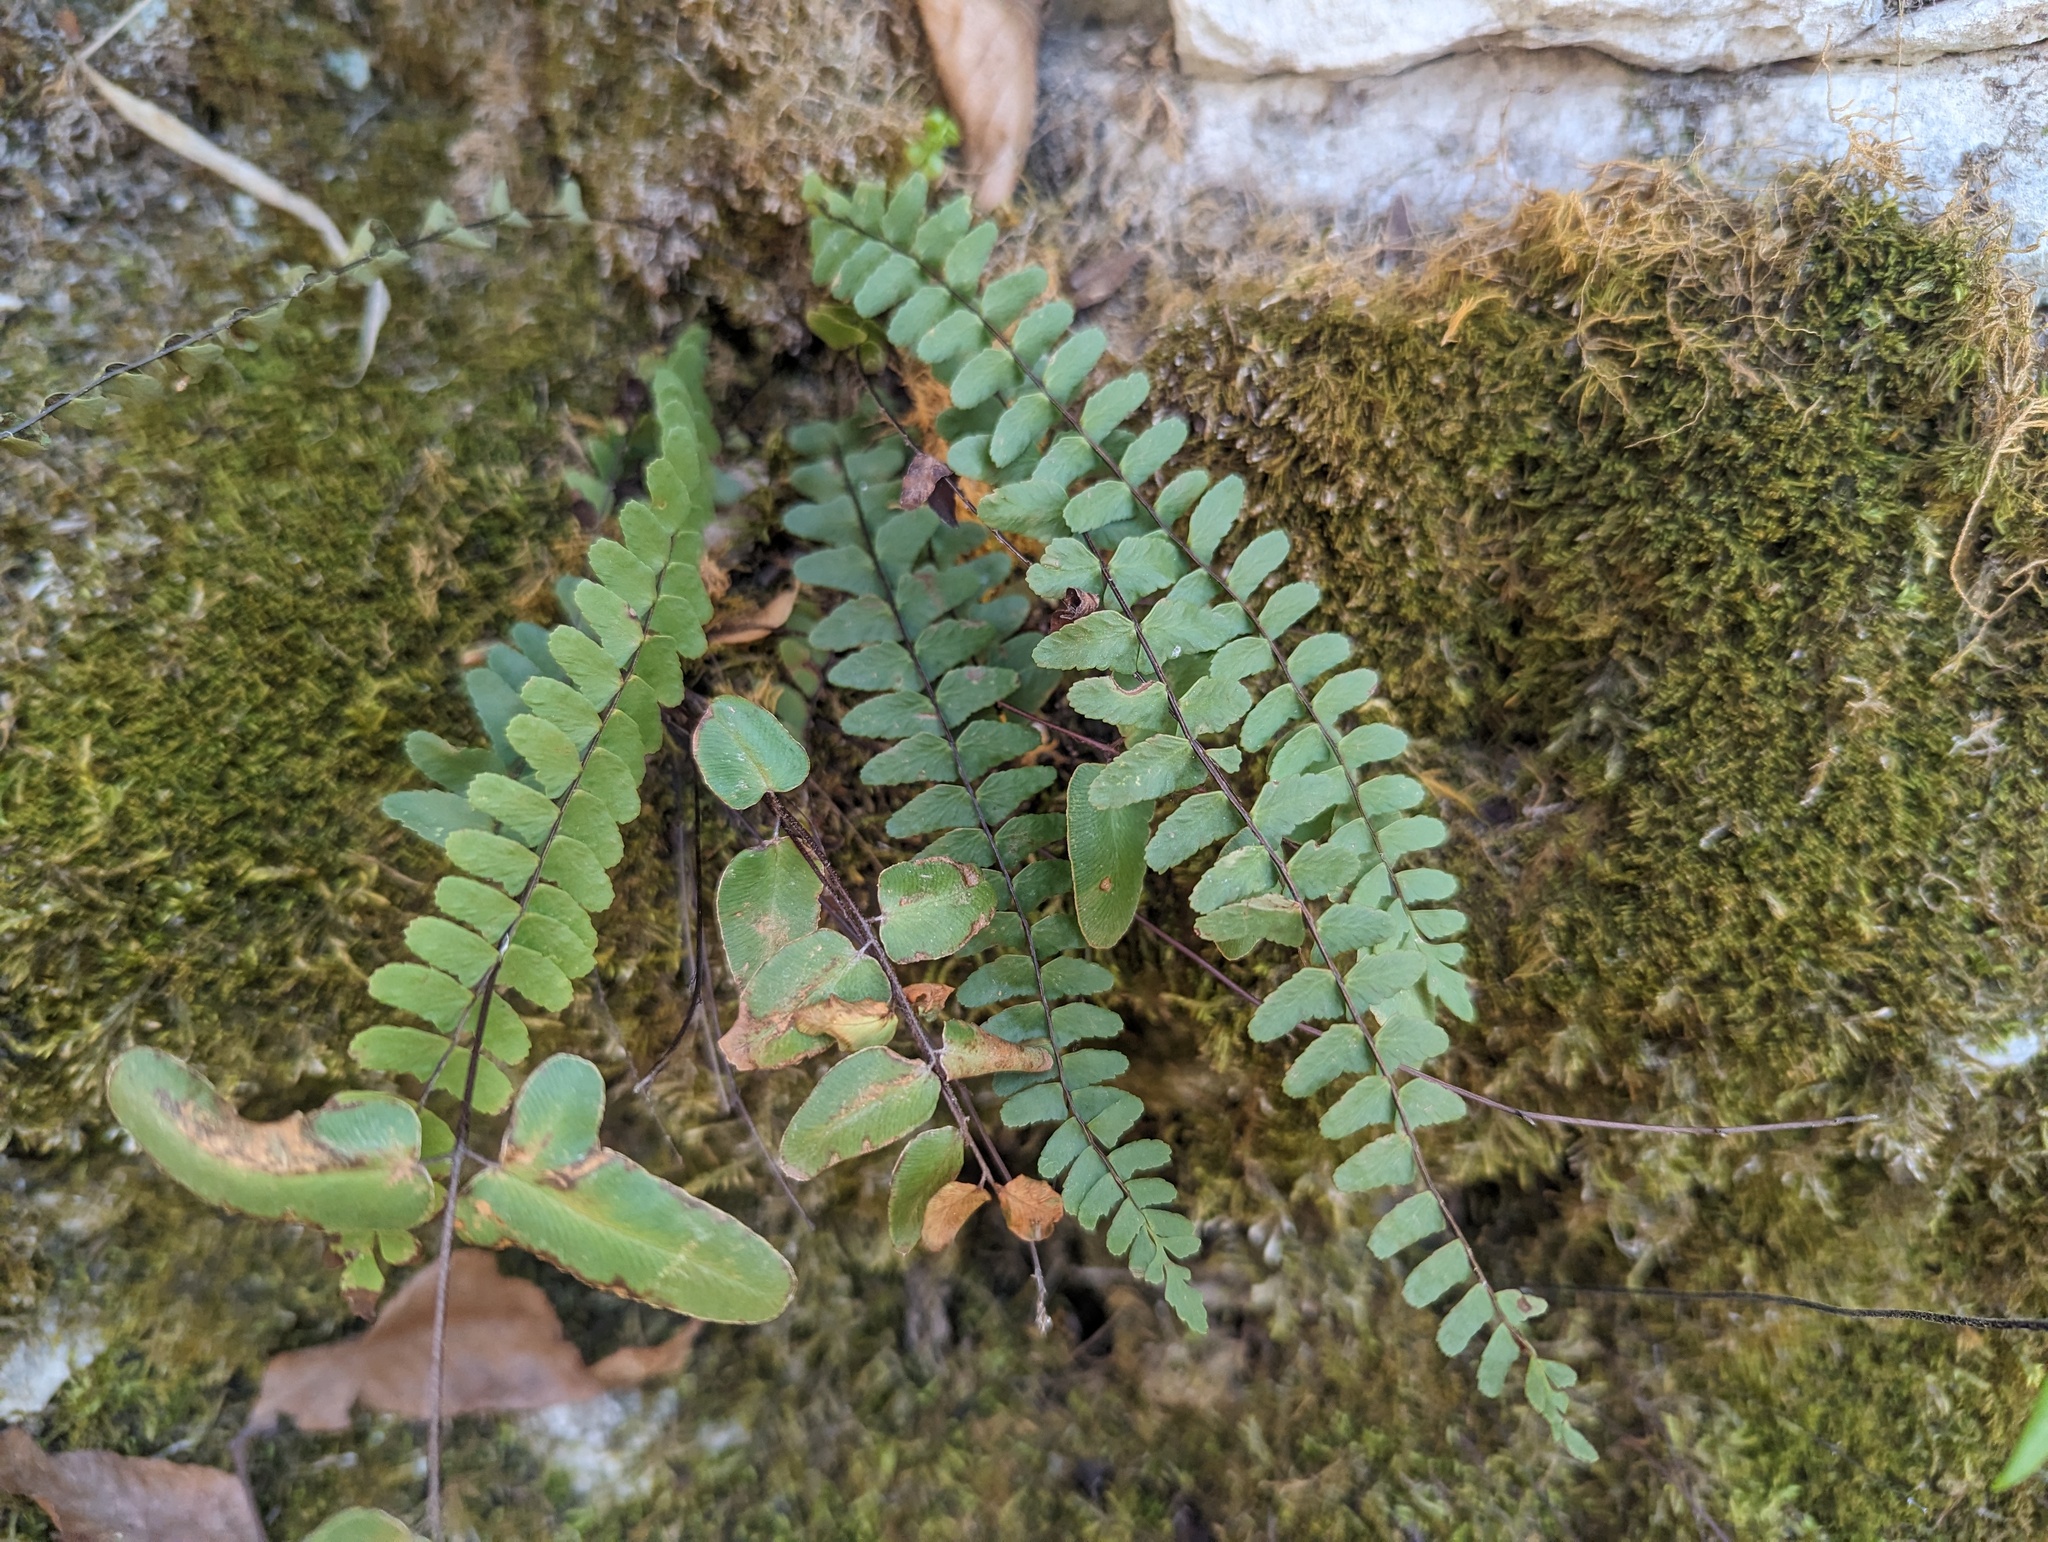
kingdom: Plantae
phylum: Tracheophyta
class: Polypodiopsida
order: Polypodiales
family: Aspleniaceae
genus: Asplenium
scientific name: Asplenium resiliens
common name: Blackstem spleenwort
